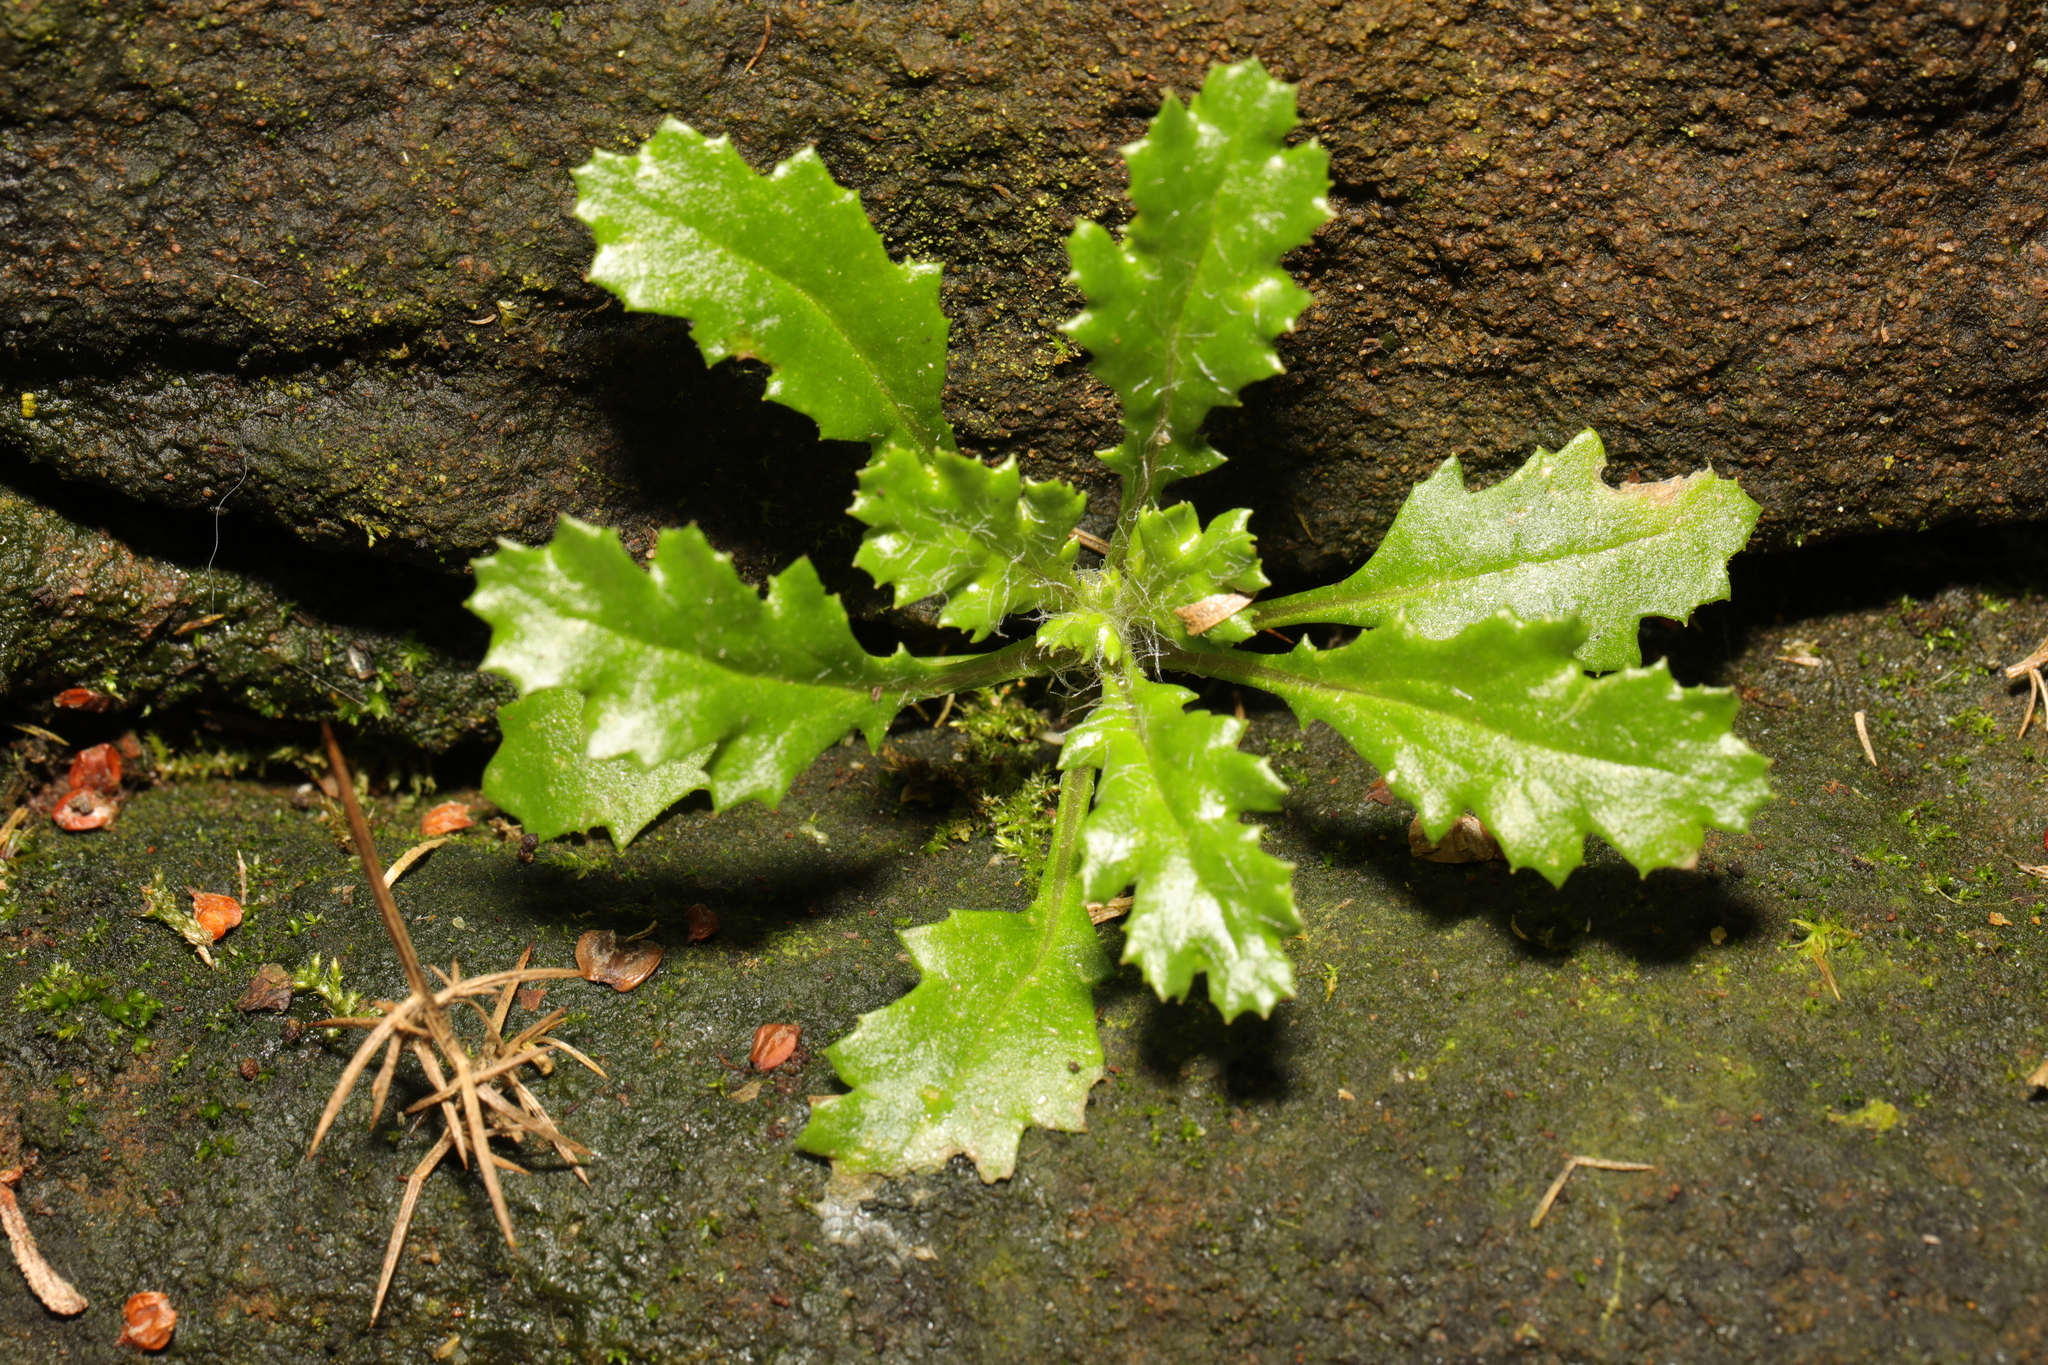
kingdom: Plantae
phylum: Tracheophyta
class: Magnoliopsida
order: Asterales
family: Asteraceae
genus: Senecio
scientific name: Senecio vulgaris
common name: Old-man-in-the-spring
